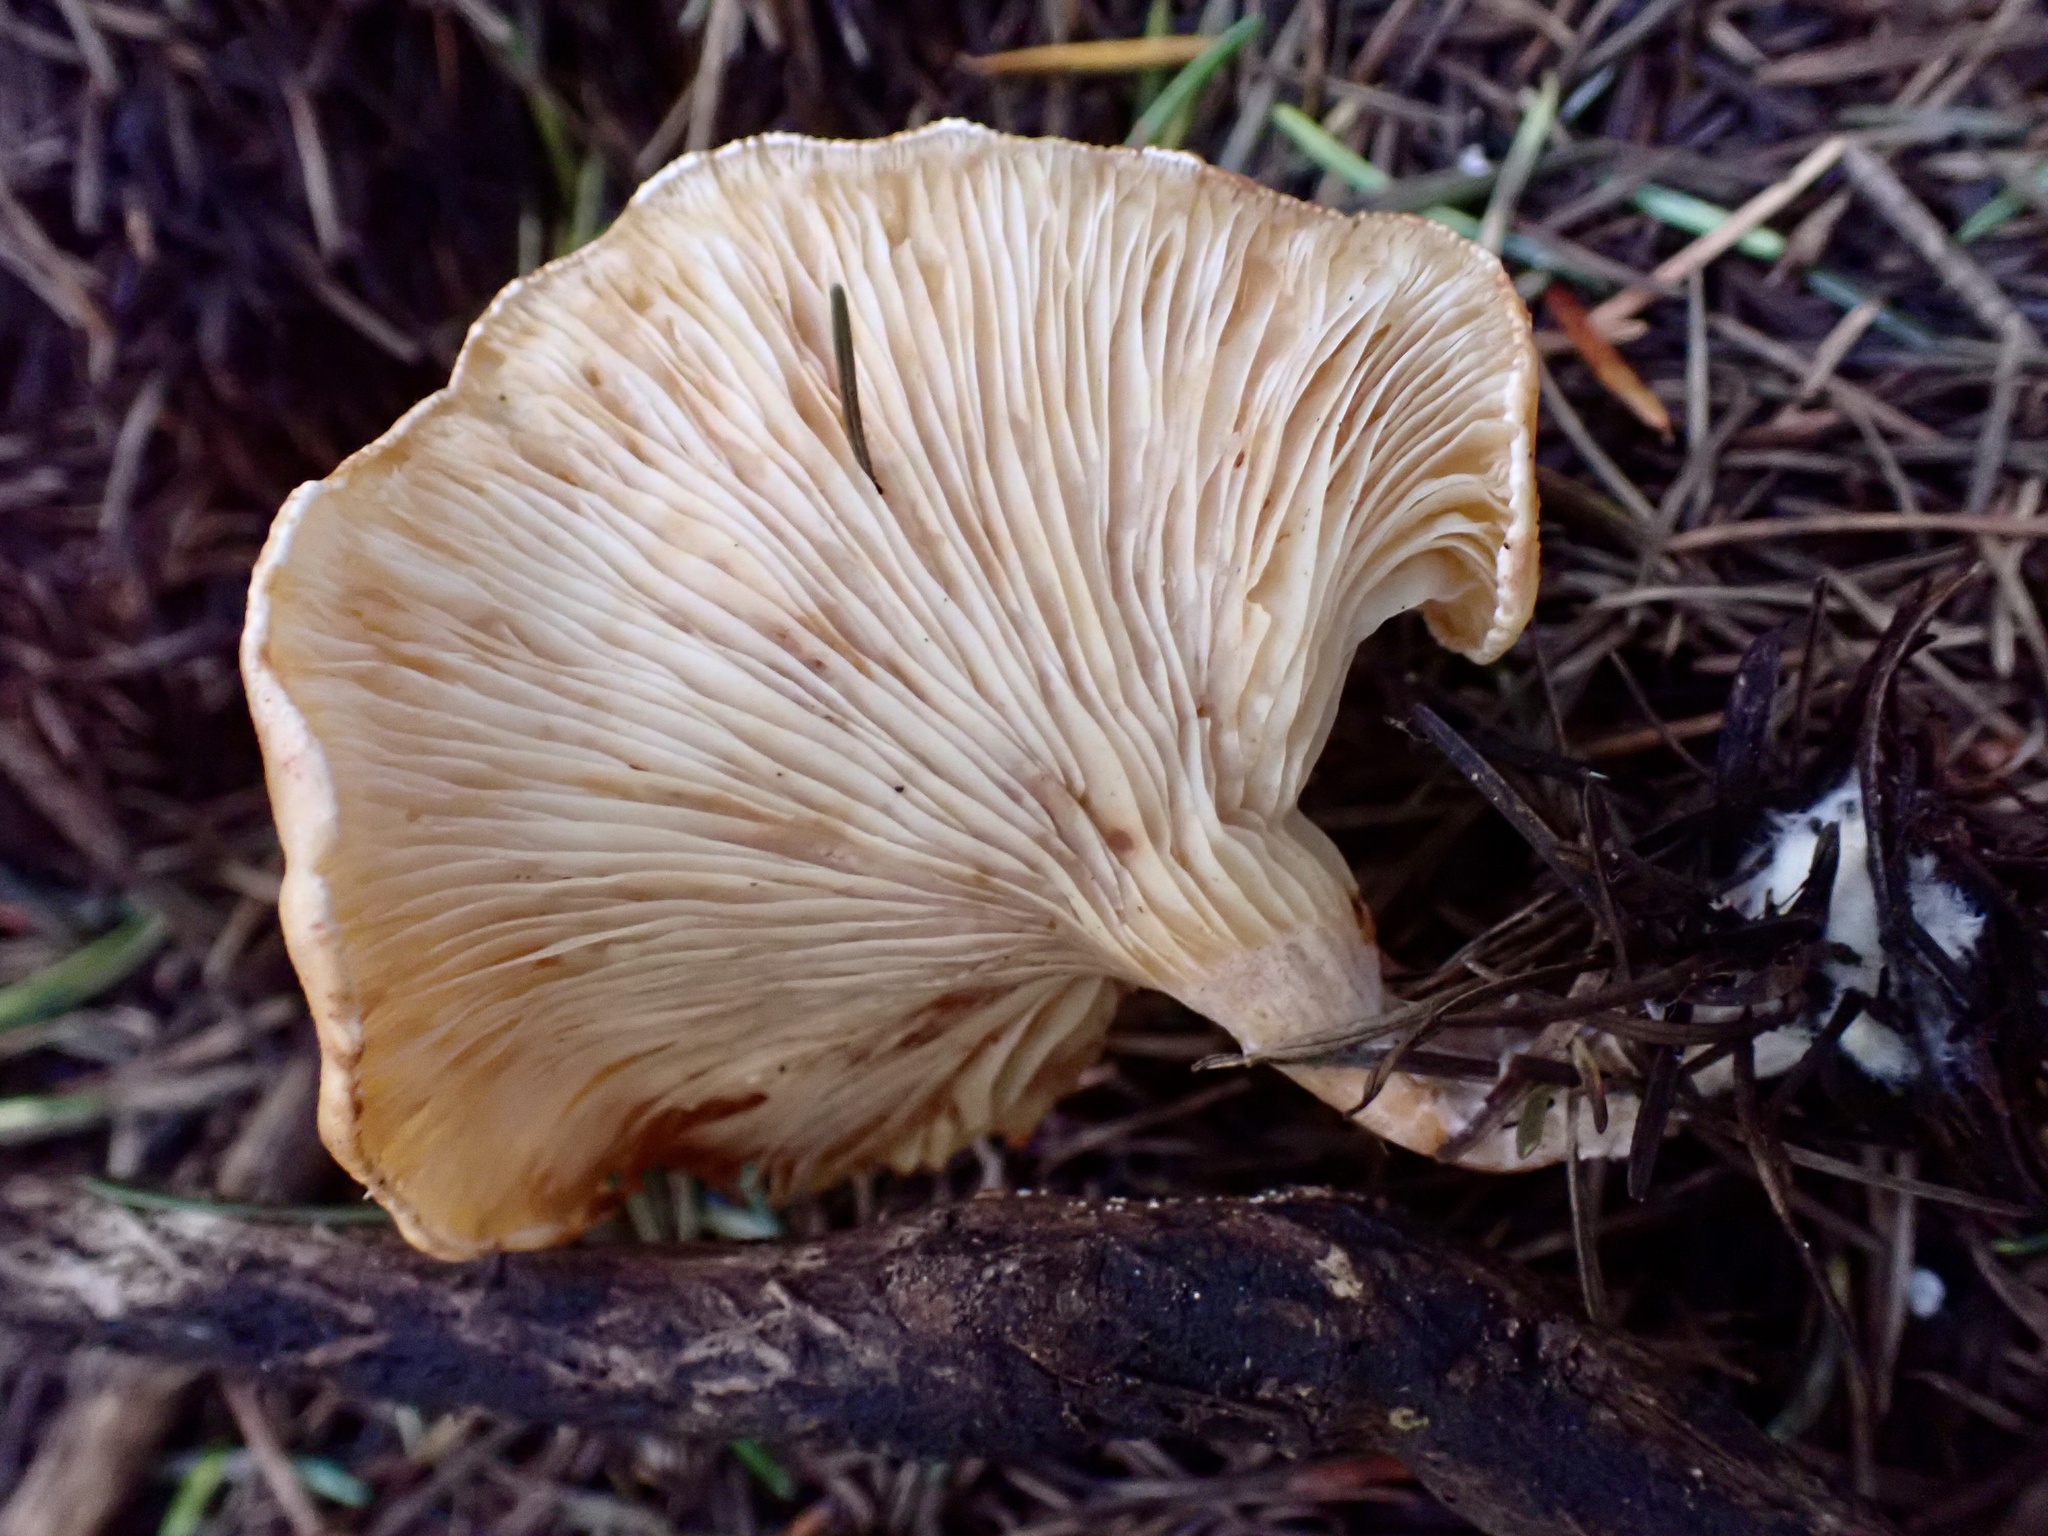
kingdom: Fungi
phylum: Basidiomycota
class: Agaricomycetes
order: Agaricales
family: Tricholomataceae
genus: Paralepista
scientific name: Paralepista flaccida
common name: Tawny funnel cap
